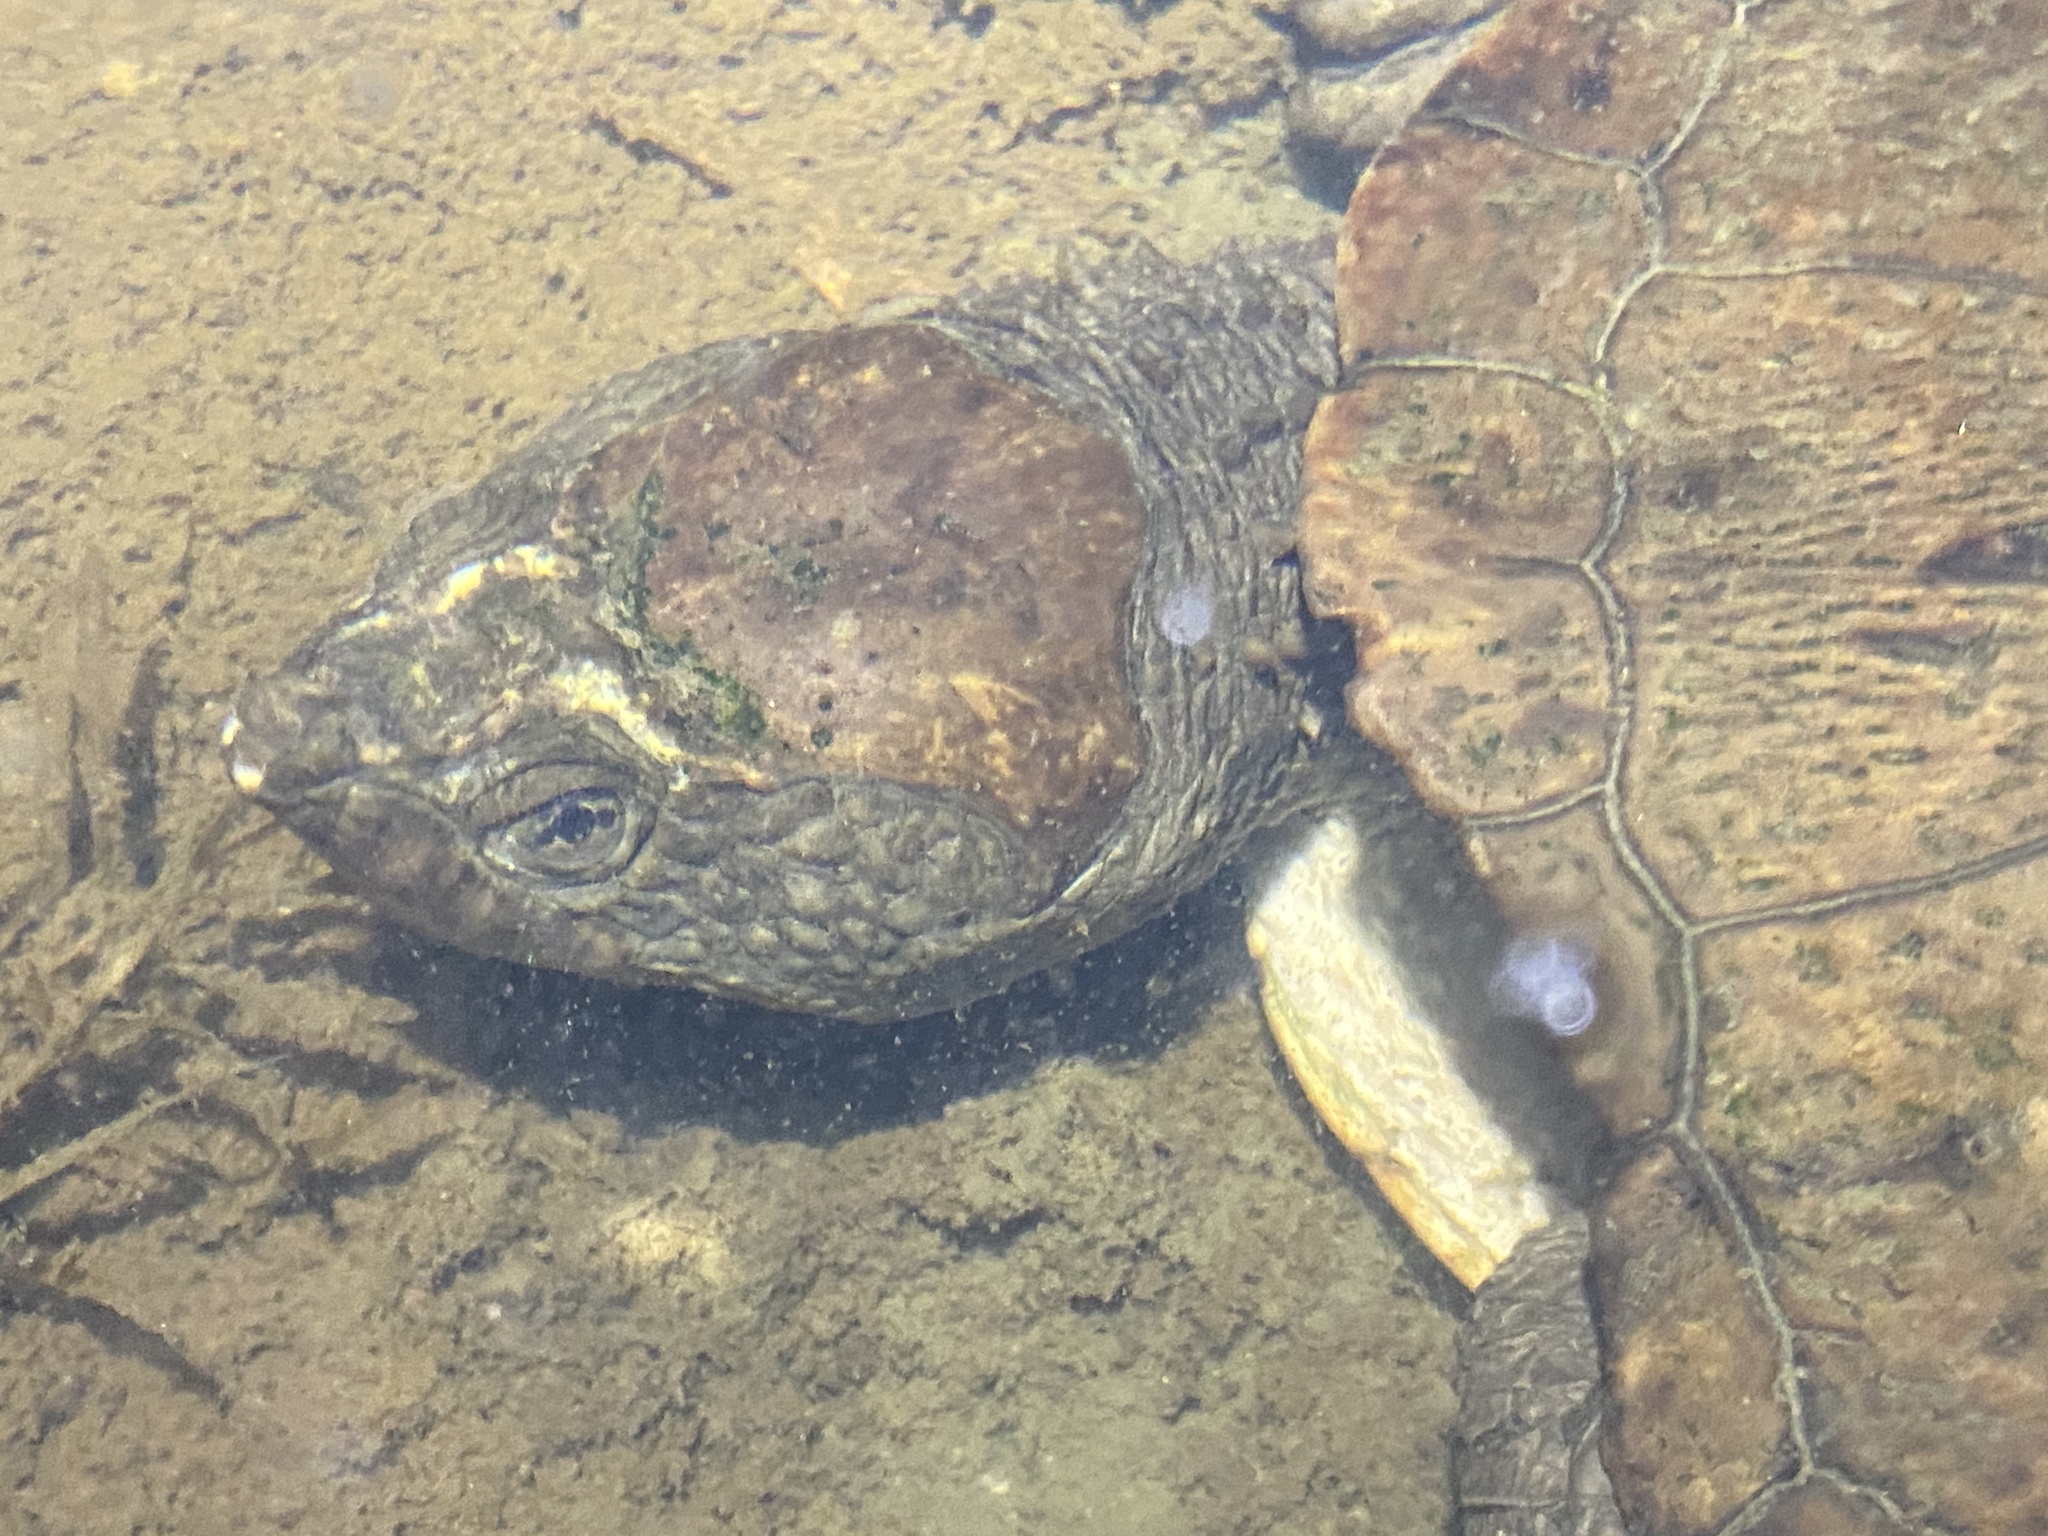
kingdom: Animalia
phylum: Chordata
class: Testudines
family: Chelidae
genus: Myuchelys
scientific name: Myuchelys latisternum
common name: Serrated snapping turtle
